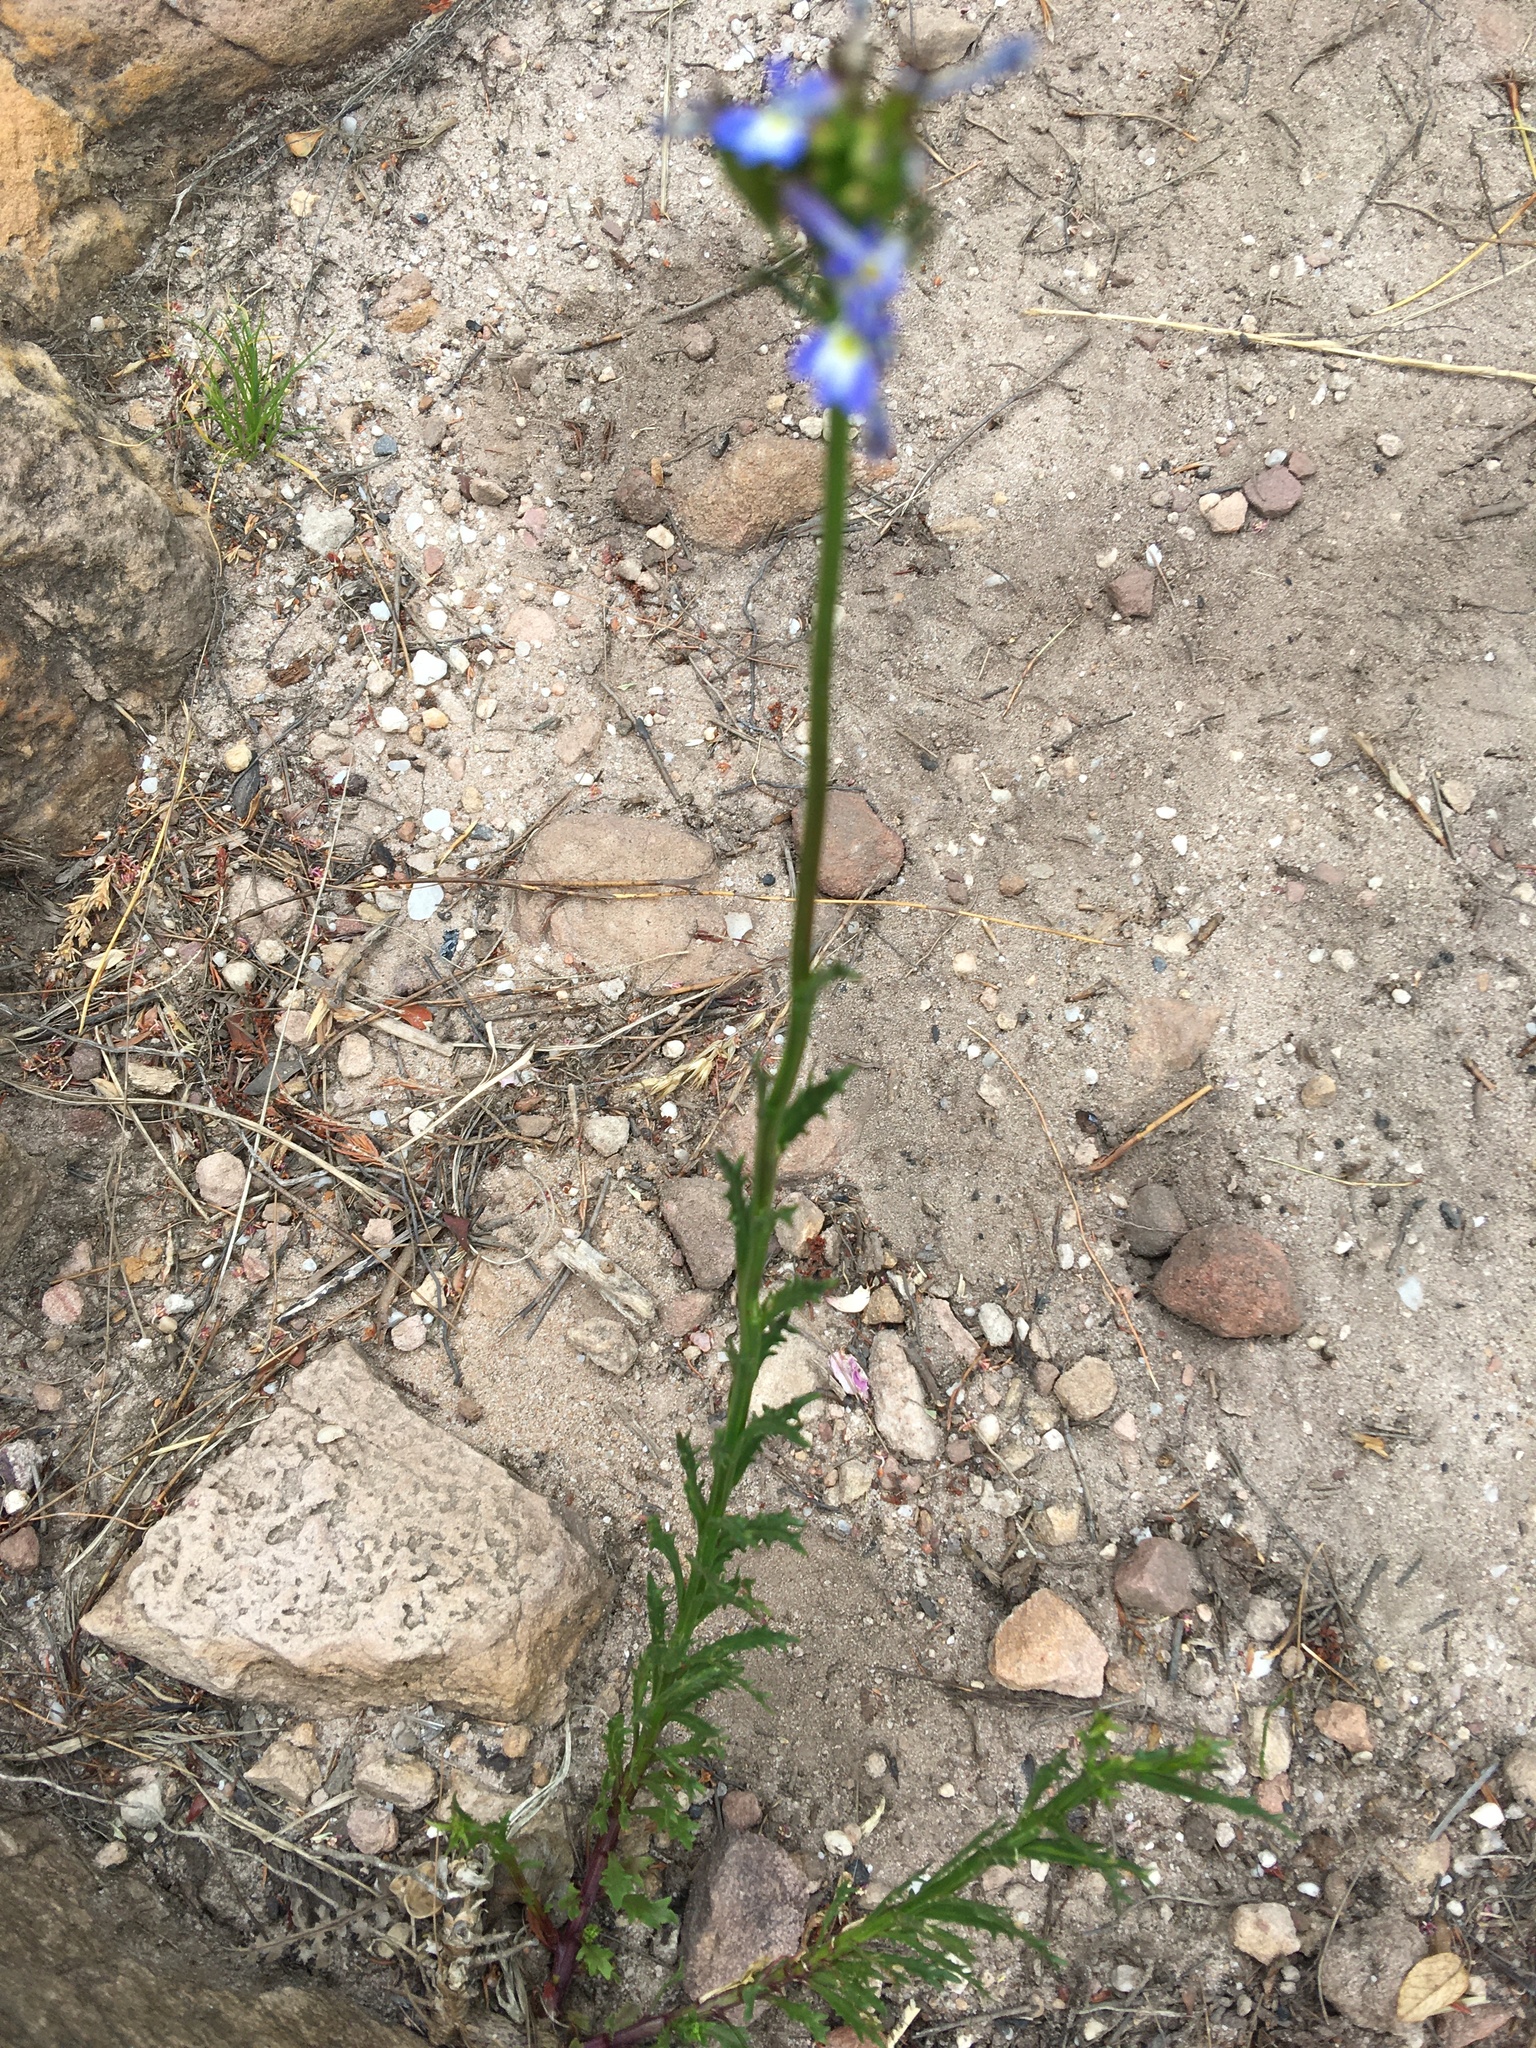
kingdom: Plantae
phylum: Tracheophyta
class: Magnoliopsida
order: Asterales
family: Campanulaceae
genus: Lobelia
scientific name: Lobelia comosa
